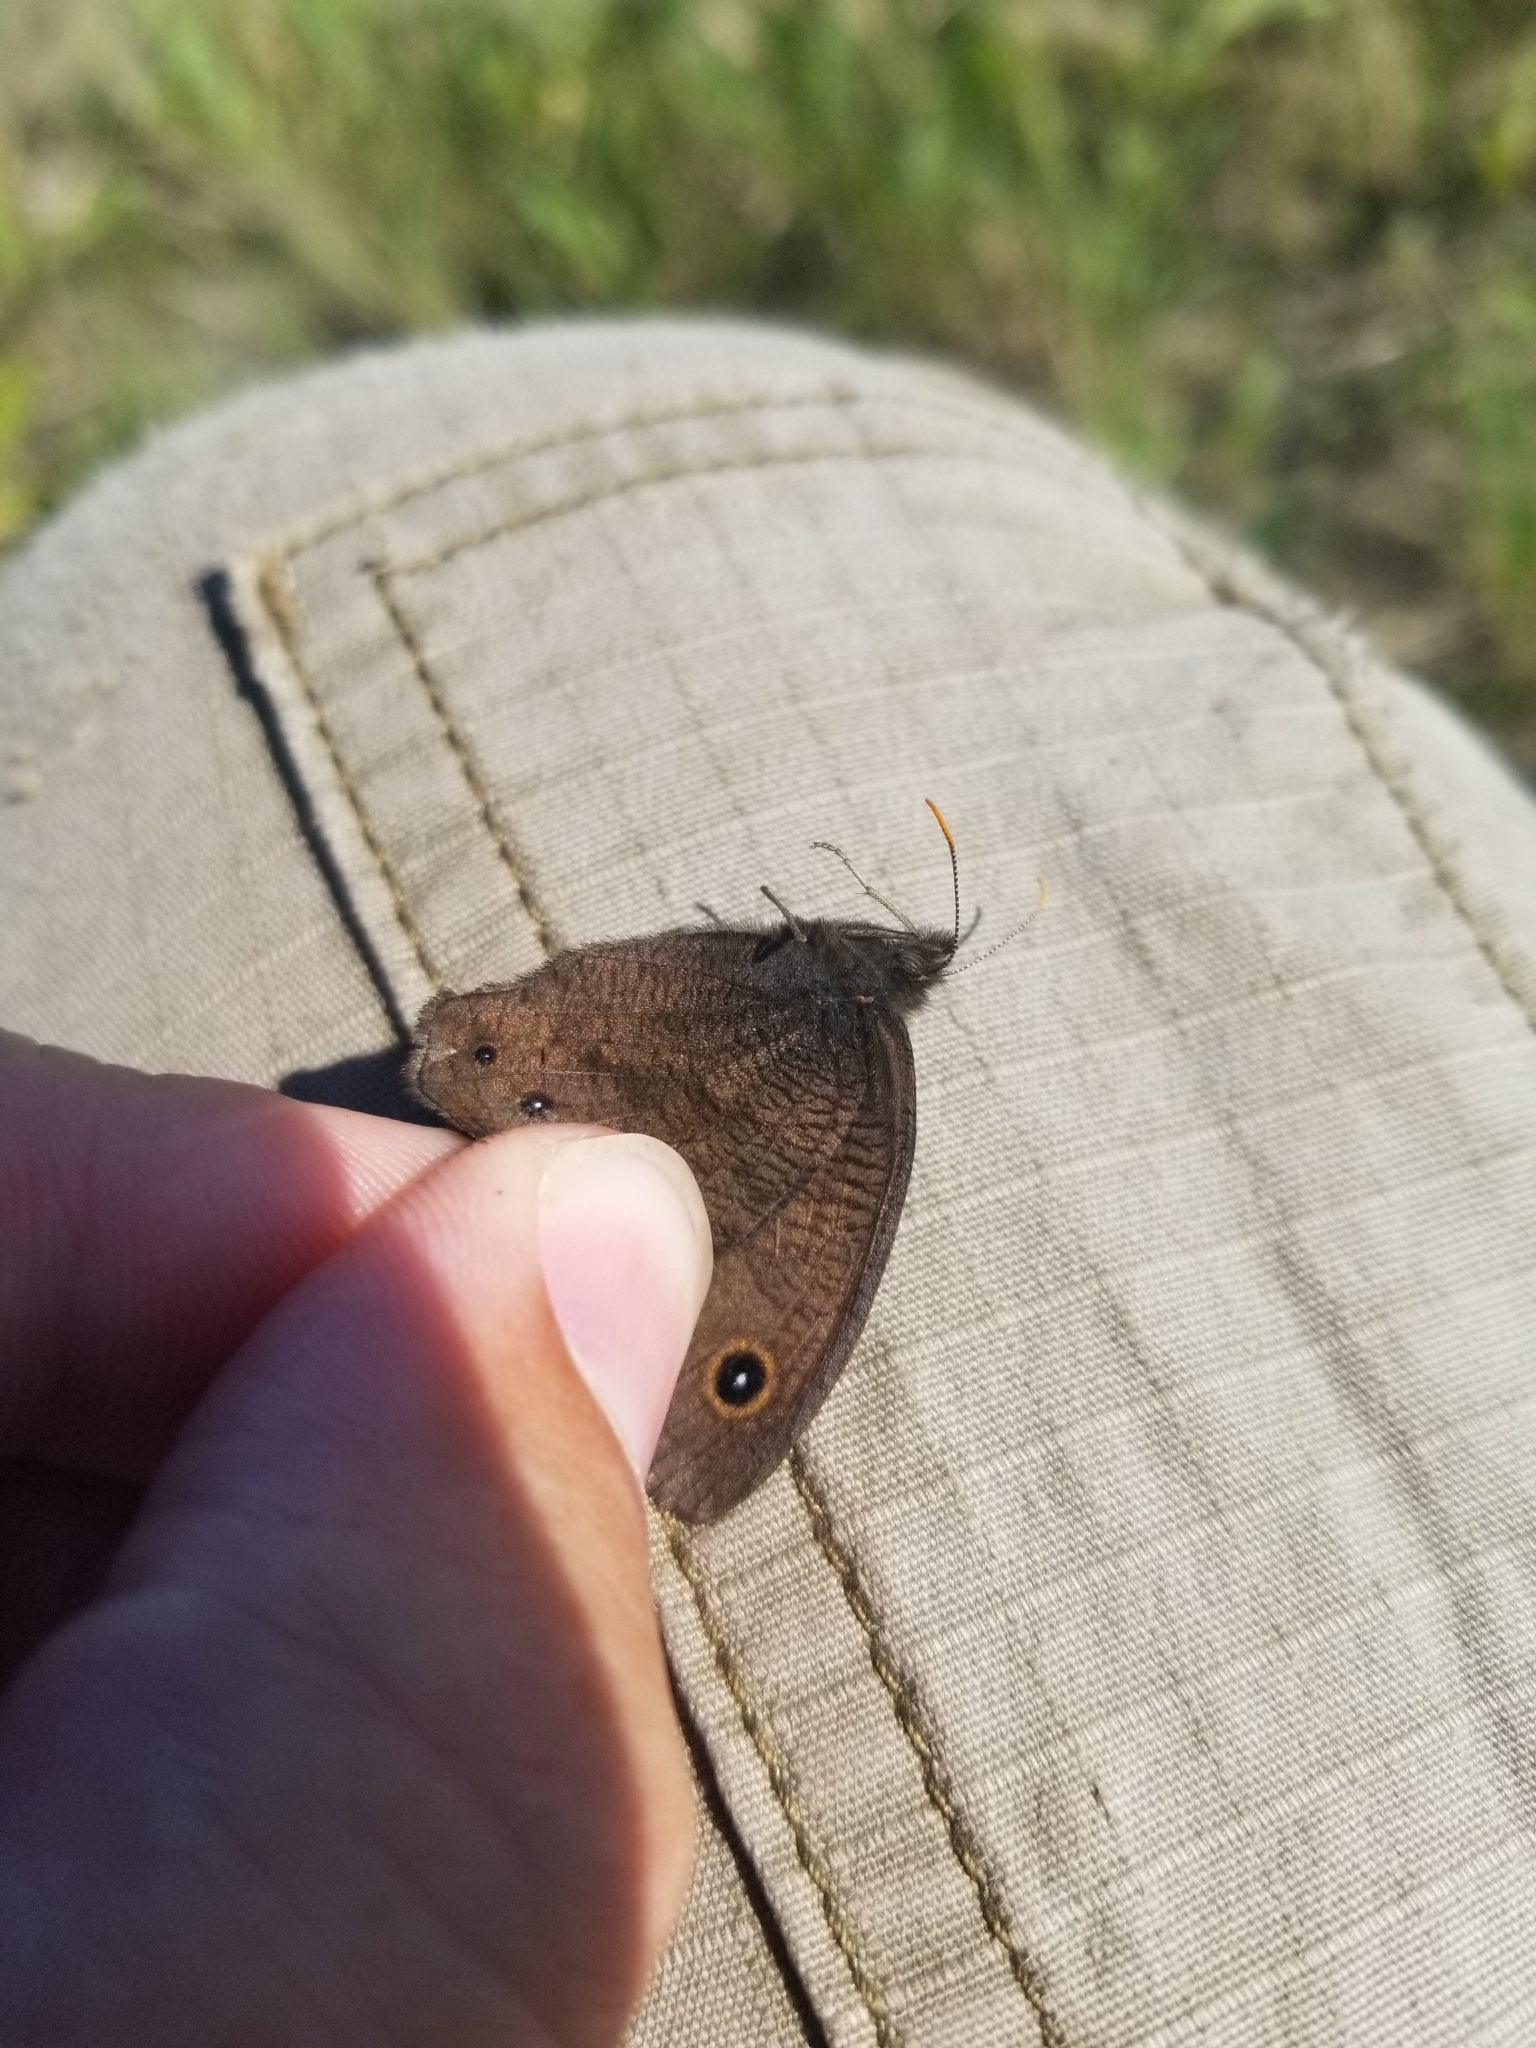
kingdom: Animalia
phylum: Arthropoda
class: Insecta
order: Lepidoptera
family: Nymphalidae
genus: Cercyonis
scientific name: Cercyonis pegala
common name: Common wood-nymph
